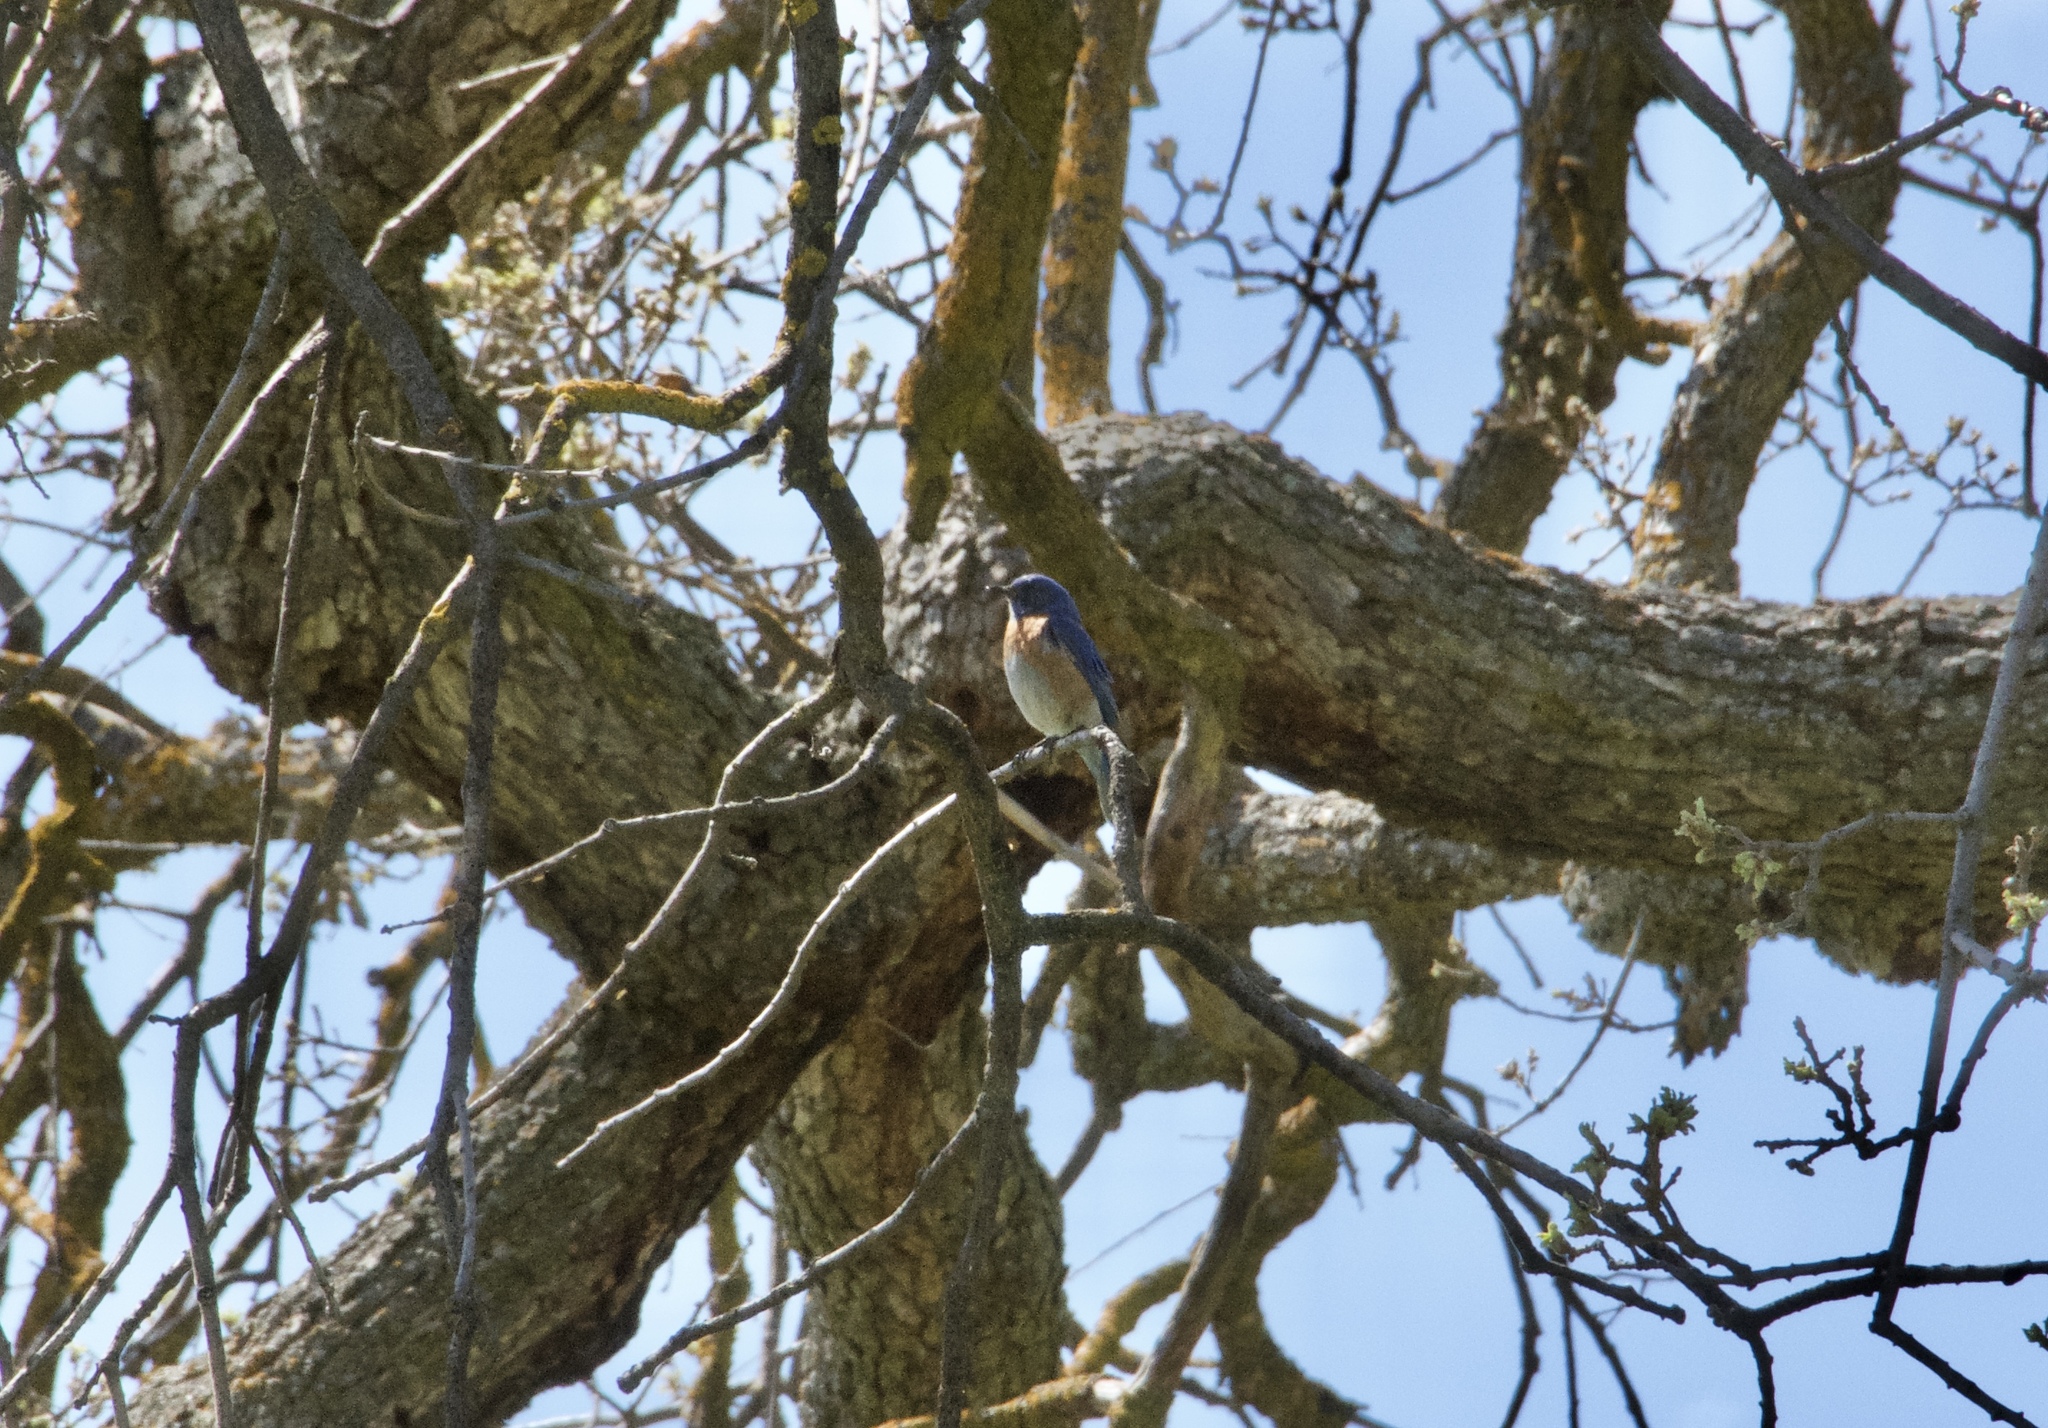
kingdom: Animalia
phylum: Chordata
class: Aves
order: Passeriformes
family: Turdidae
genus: Sialia
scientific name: Sialia mexicana
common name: Western bluebird
